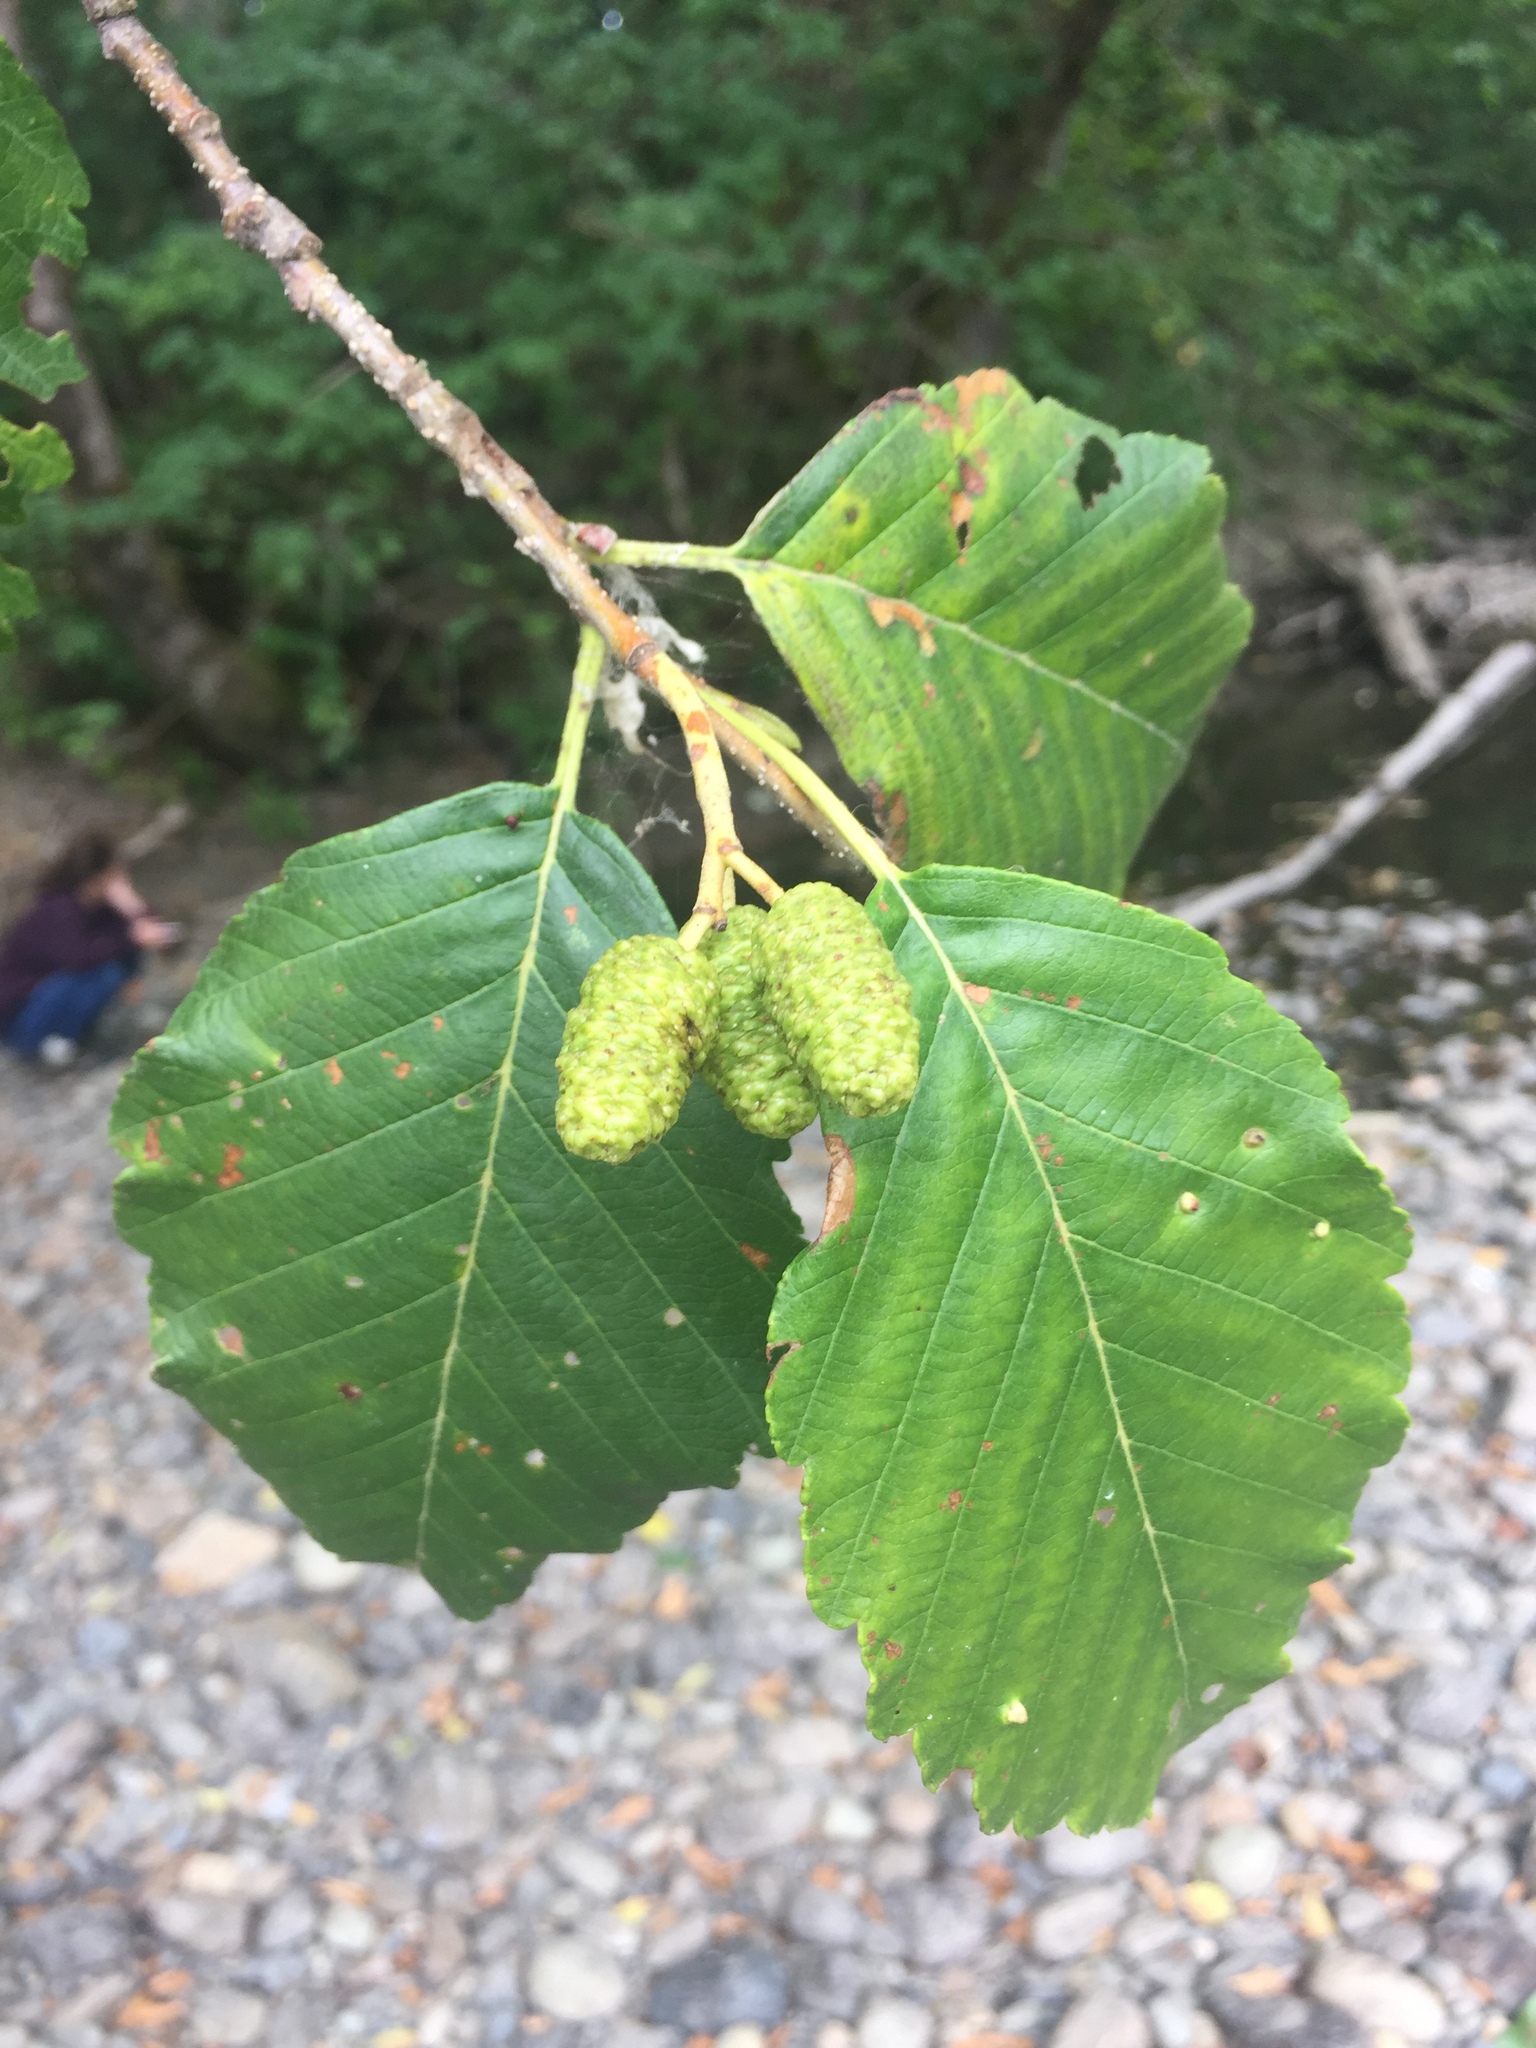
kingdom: Plantae
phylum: Tracheophyta
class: Magnoliopsida
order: Fagales
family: Betulaceae
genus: Alnus
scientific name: Alnus rubra
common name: Red alder
